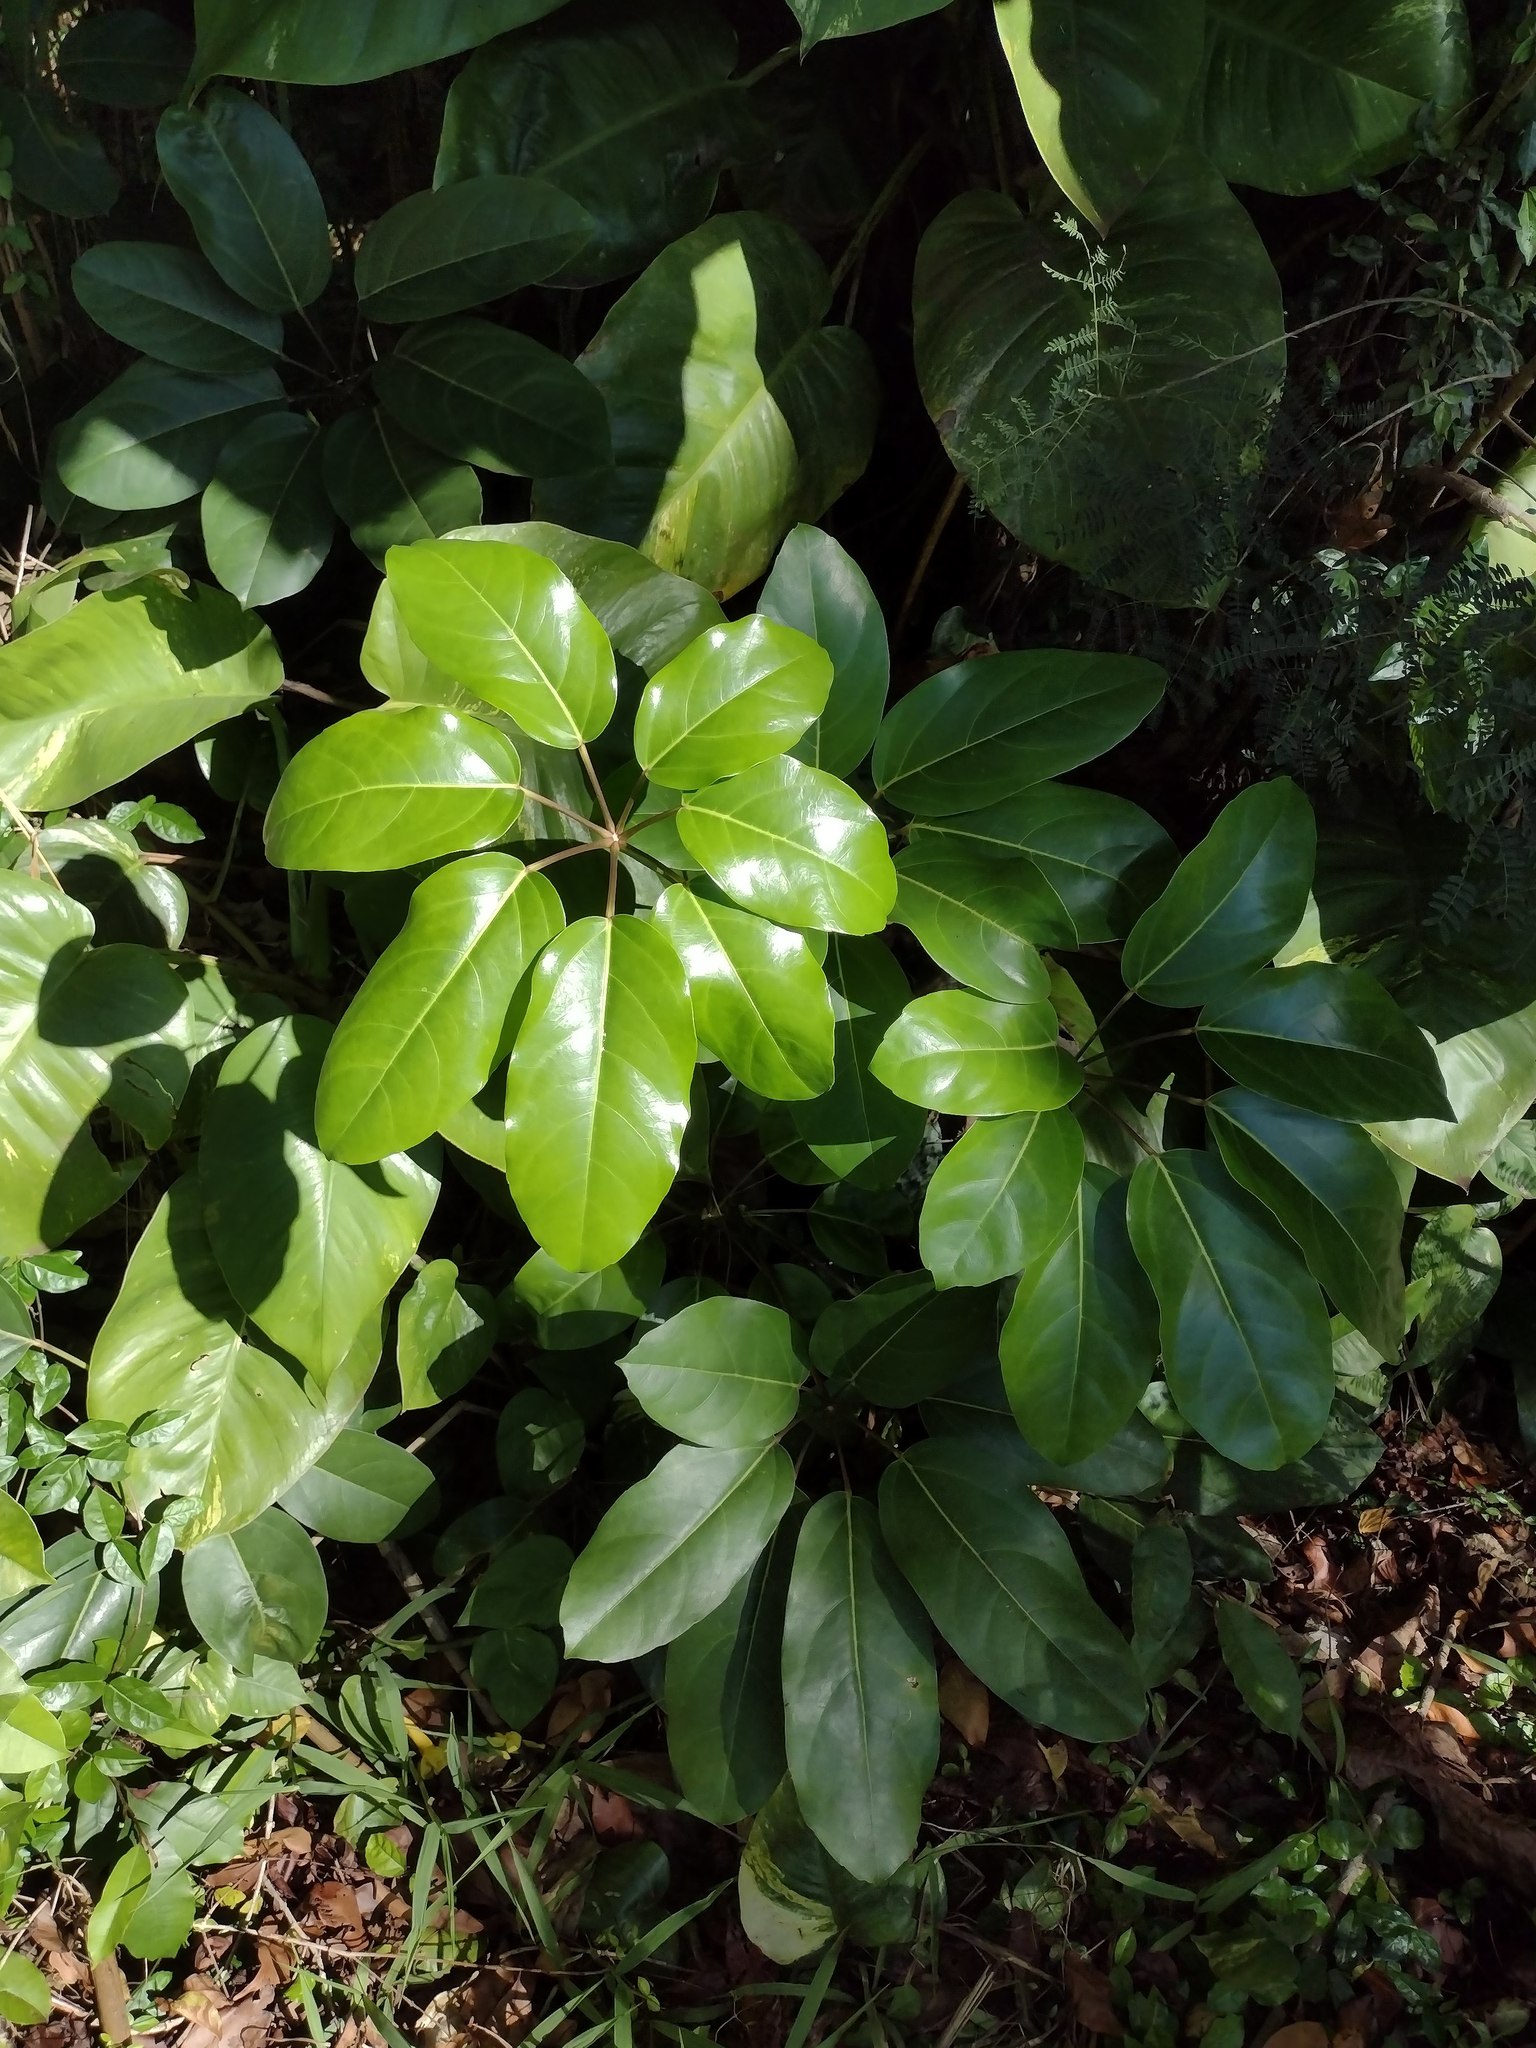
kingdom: Plantae
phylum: Tracheophyta
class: Magnoliopsida
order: Apiales
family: Araliaceae
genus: Heptapleurum
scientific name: Heptapleurum actinophyllum
